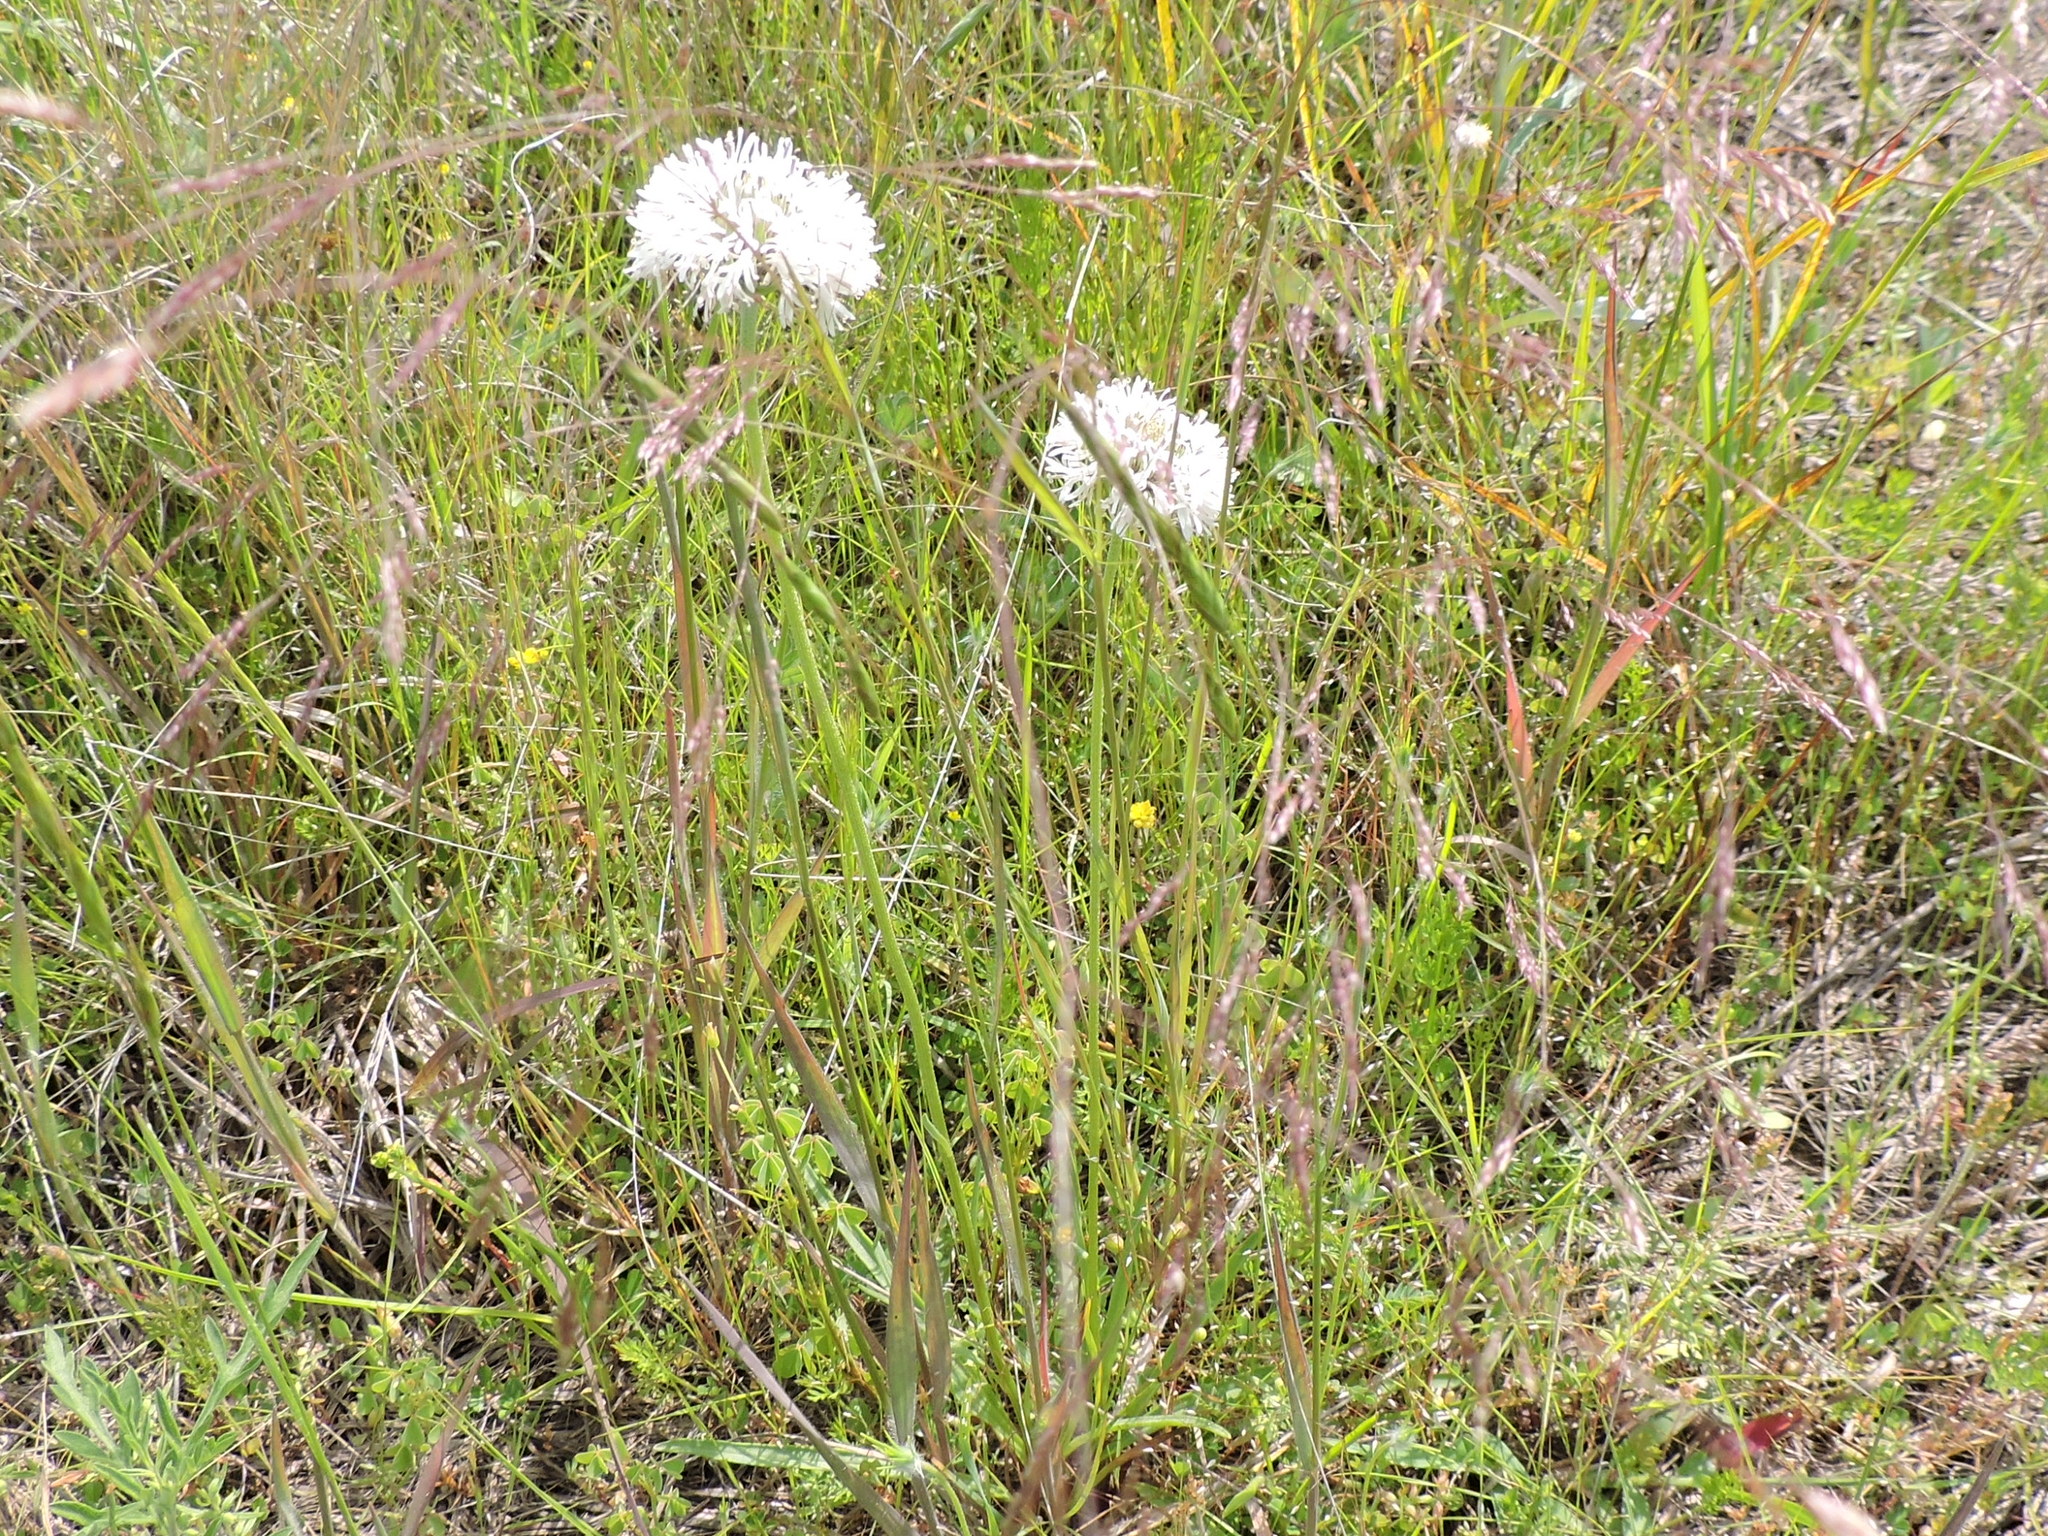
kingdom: Plantae
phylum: Tracheophyta
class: Magnoliopsida
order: Asterales
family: Asteraceae
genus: Marshallia
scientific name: Marshallia caespitosa
